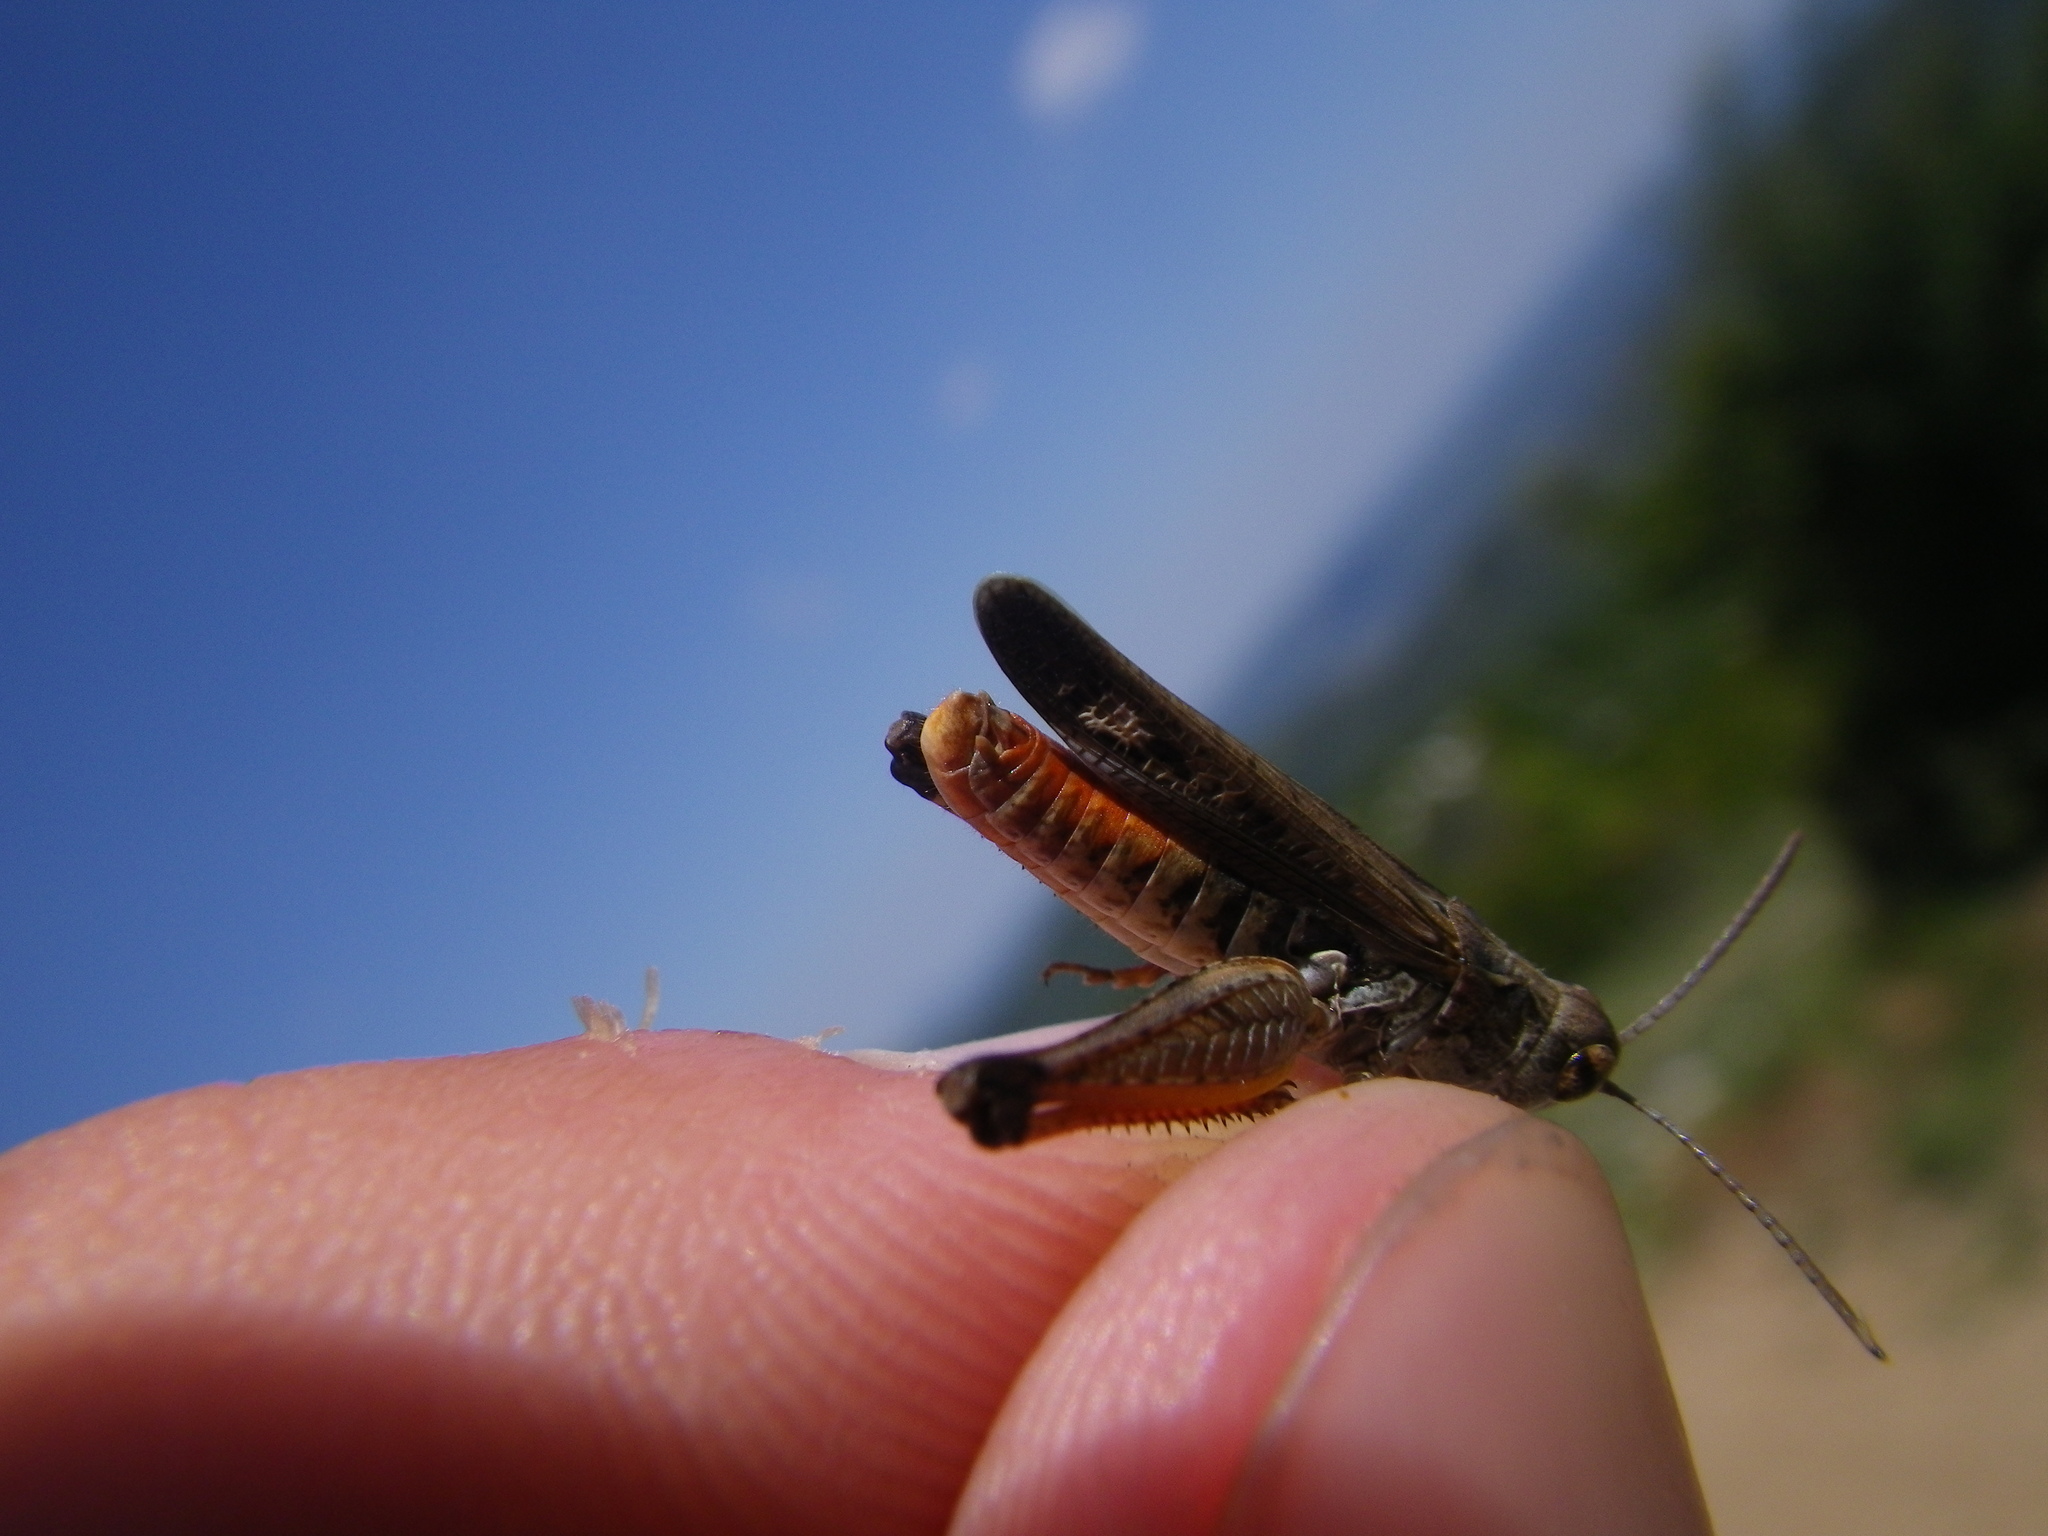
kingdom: Animalia
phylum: Arthropoda
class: Insecta
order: Orthoptera
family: Acrididae
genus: Omocestus
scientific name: Omocestus raymondi
